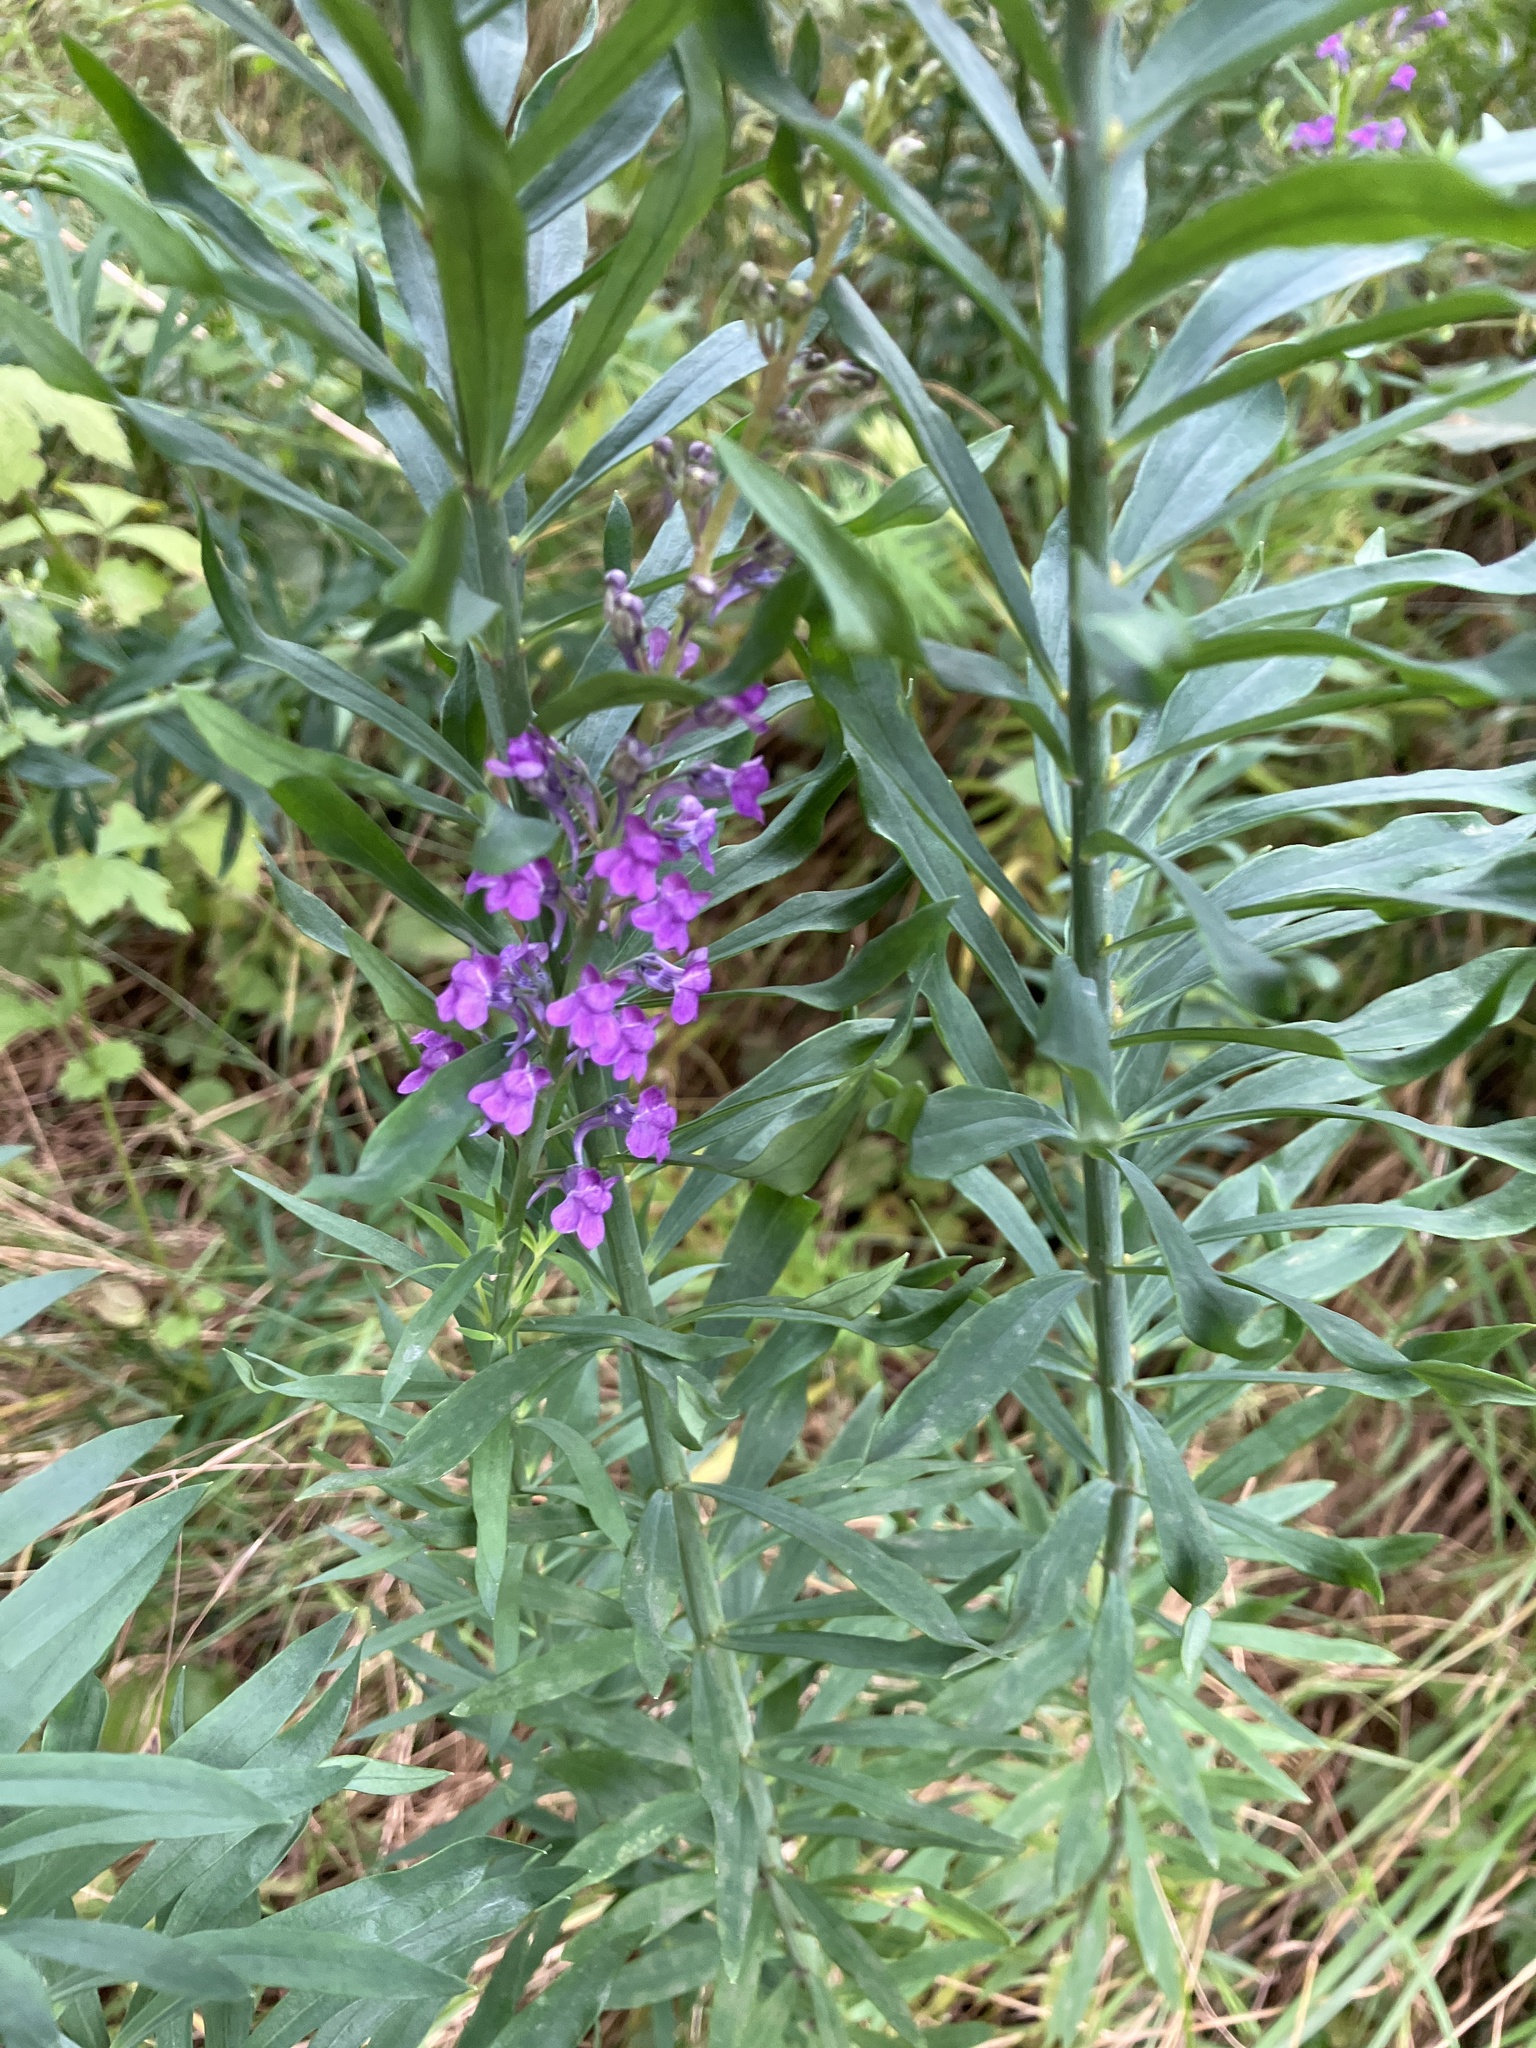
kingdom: Plantae
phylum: Tracheophyta
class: Magnoliopsida
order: Lamiales
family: Plantaginaceae
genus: Linaria
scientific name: Linaria purpurea
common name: Purple toadflax
